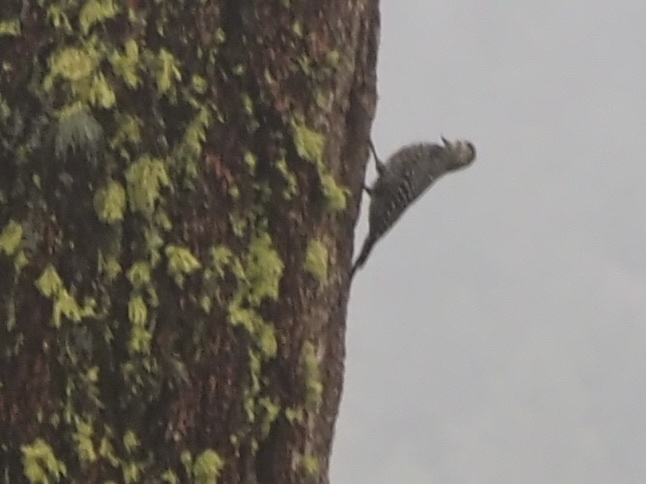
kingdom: Animalia
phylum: Chordata
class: Aves
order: Piciformes
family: Picidae
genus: Sphyrapicus
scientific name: Sphyrapicus thyroideus
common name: Williamson's sapsucker
